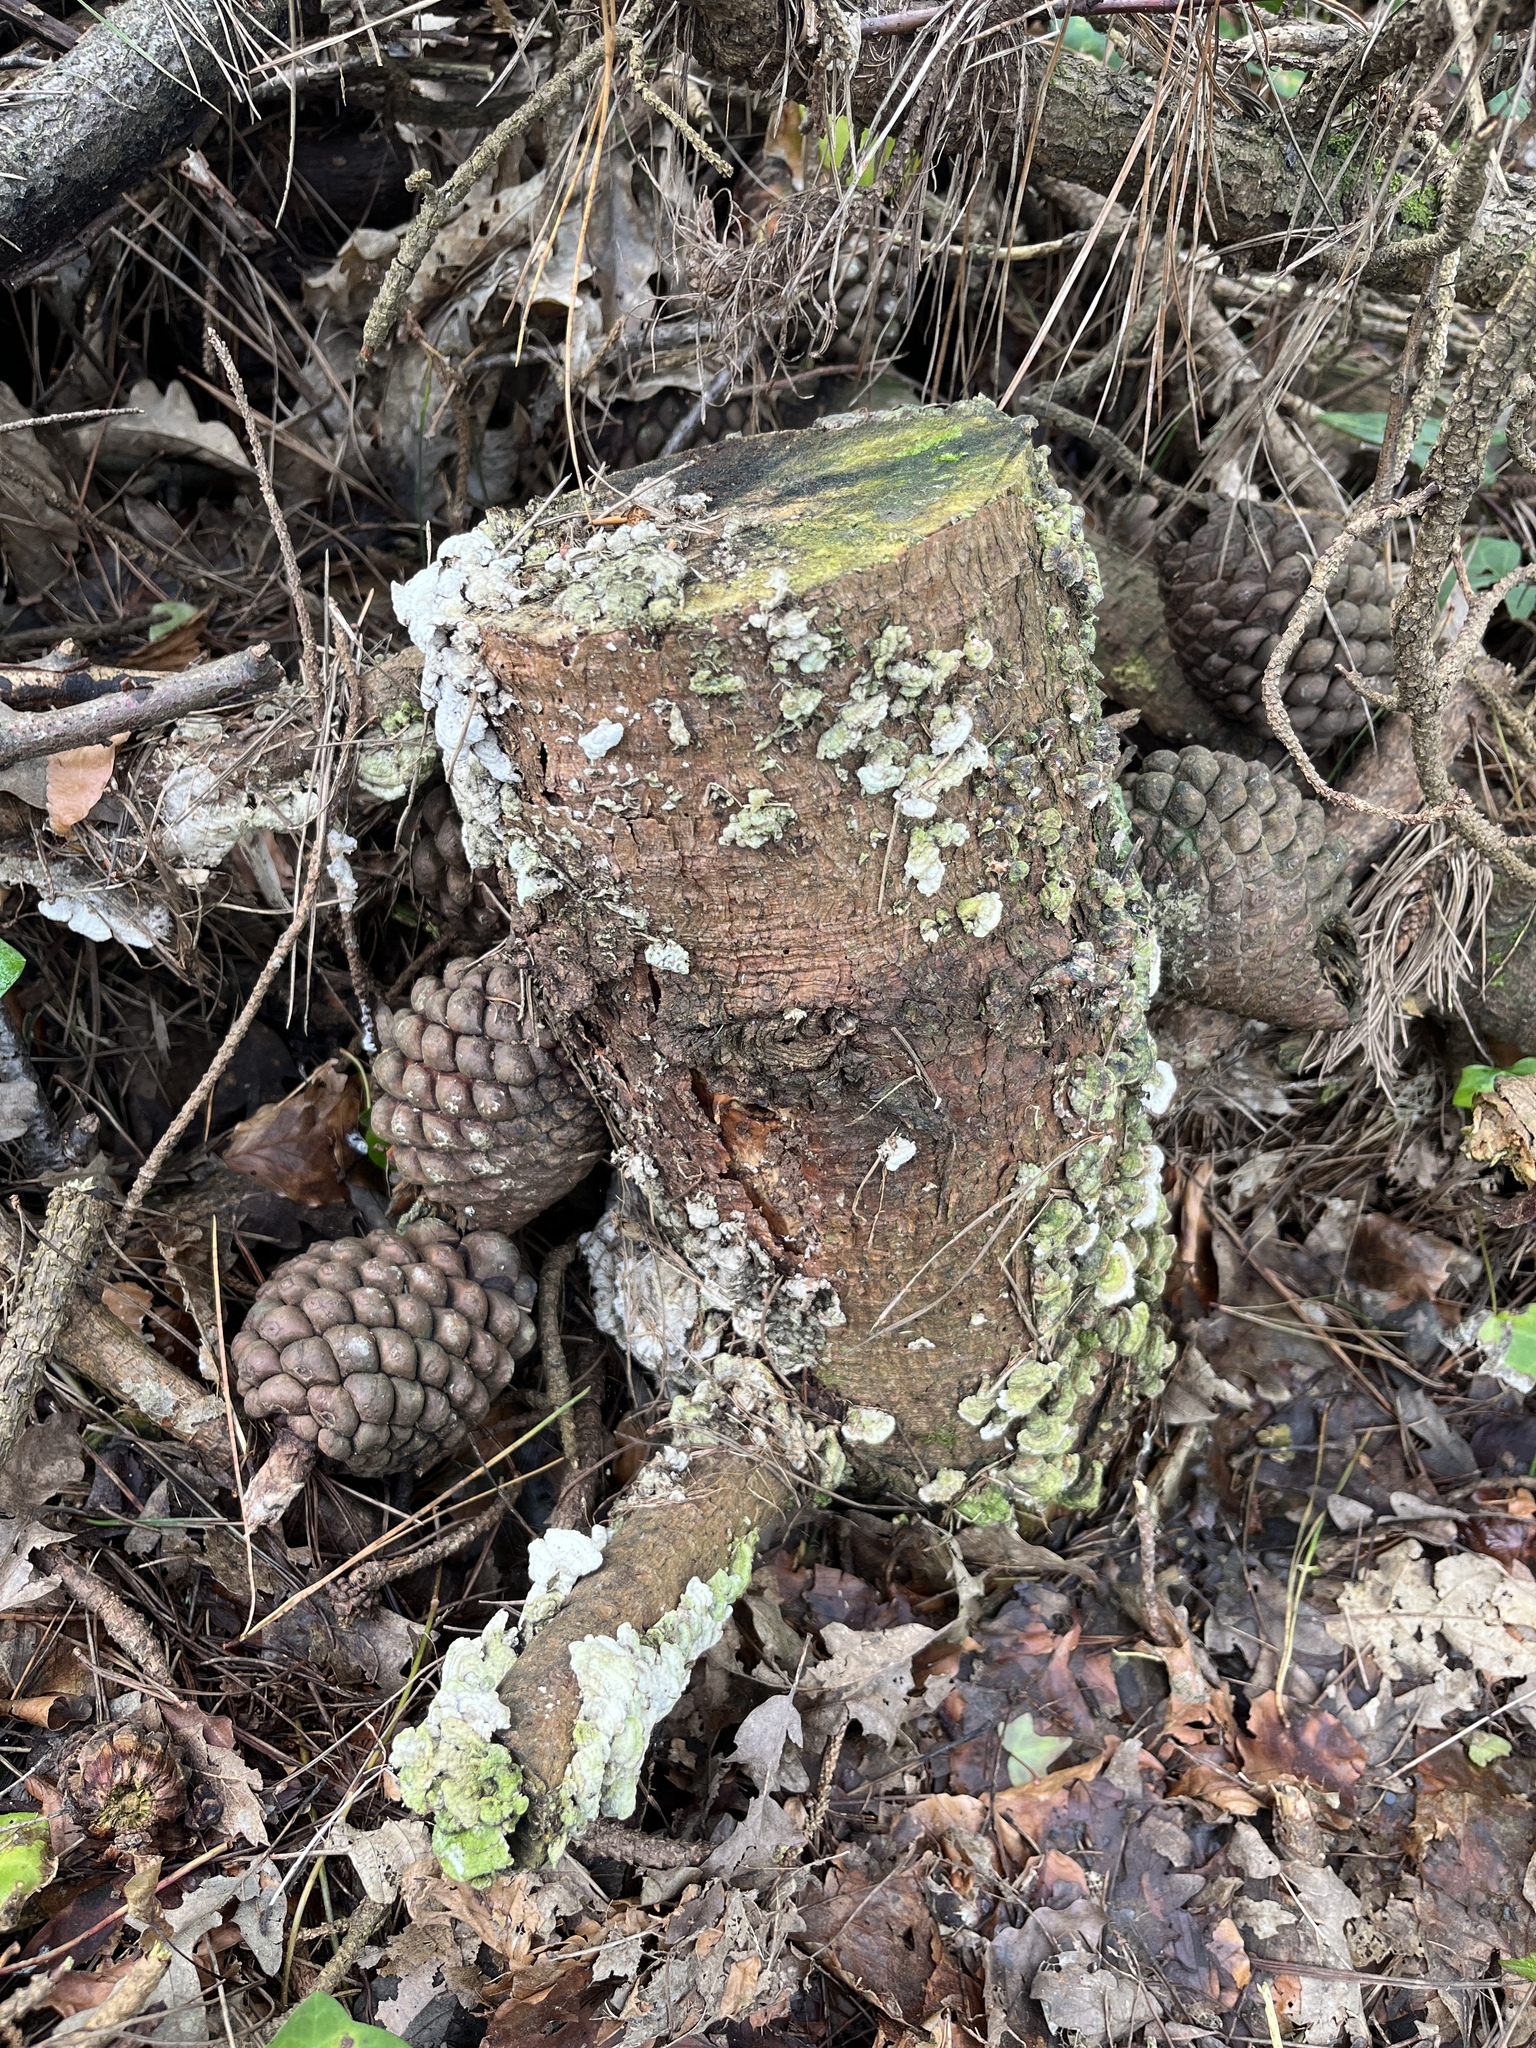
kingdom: Fungi
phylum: Basidiomycota
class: Agaricomycetes
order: Hymenochaetales
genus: Trichaptum
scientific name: Trichaptum abietinum
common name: Purplepore bracket
